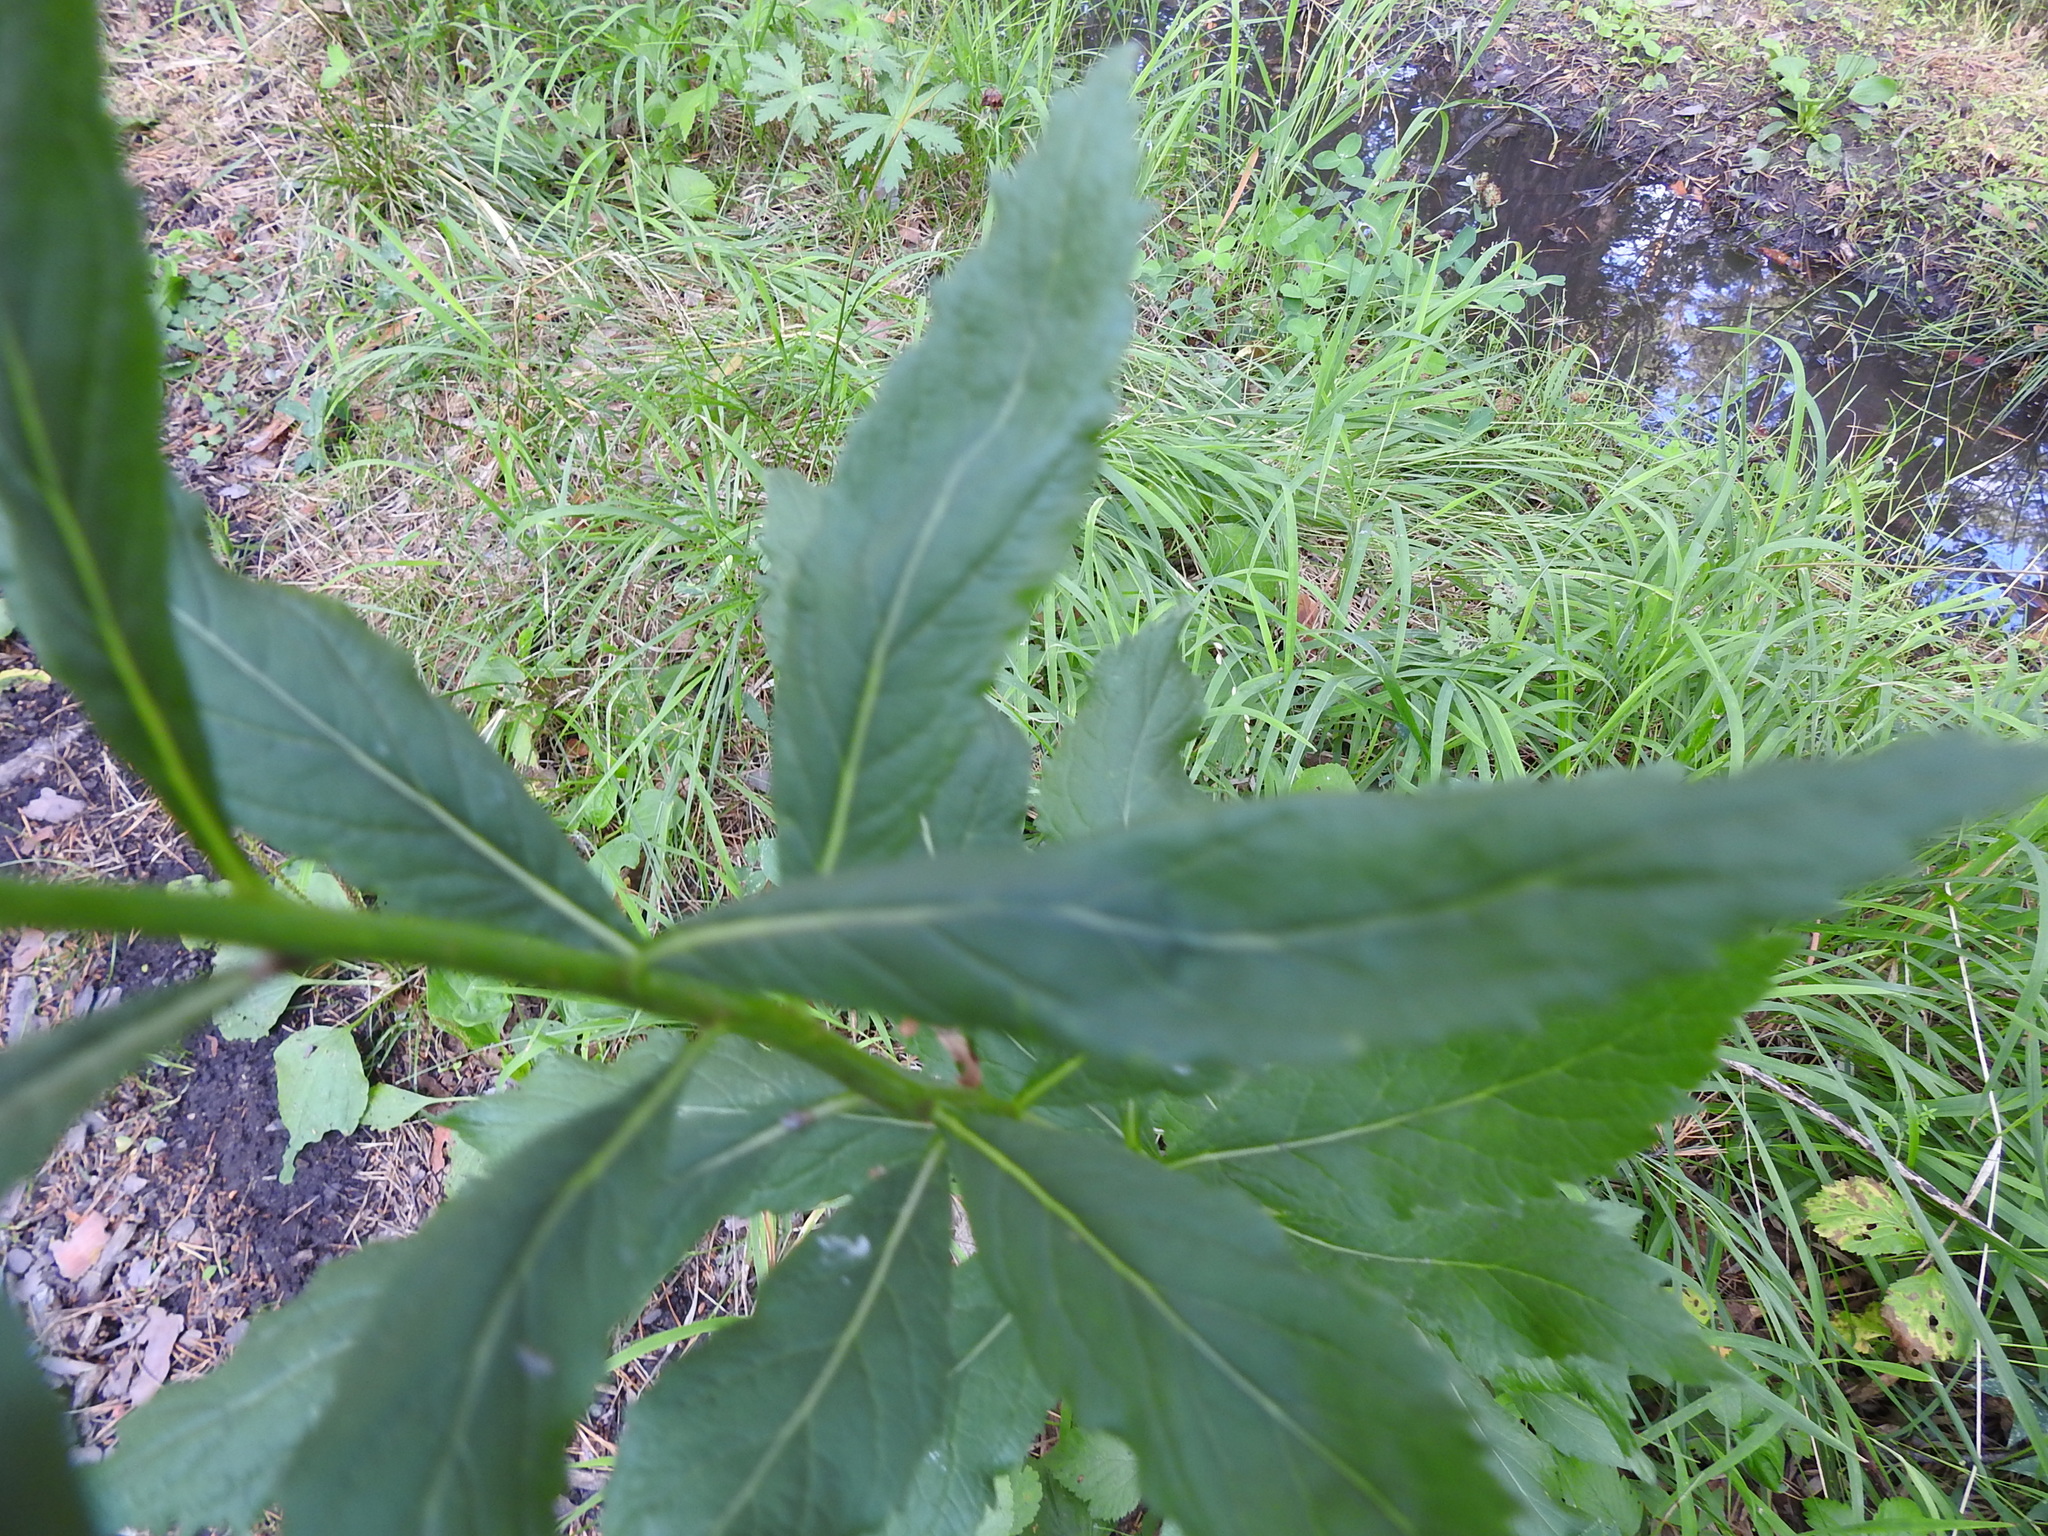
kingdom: Plantae
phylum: Tracheophyta
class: Magnoliopsida
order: Asterales
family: Campanulaceae
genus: Adenophora
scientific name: Adenophora liliifolia
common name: Lilyleaf ladybells
